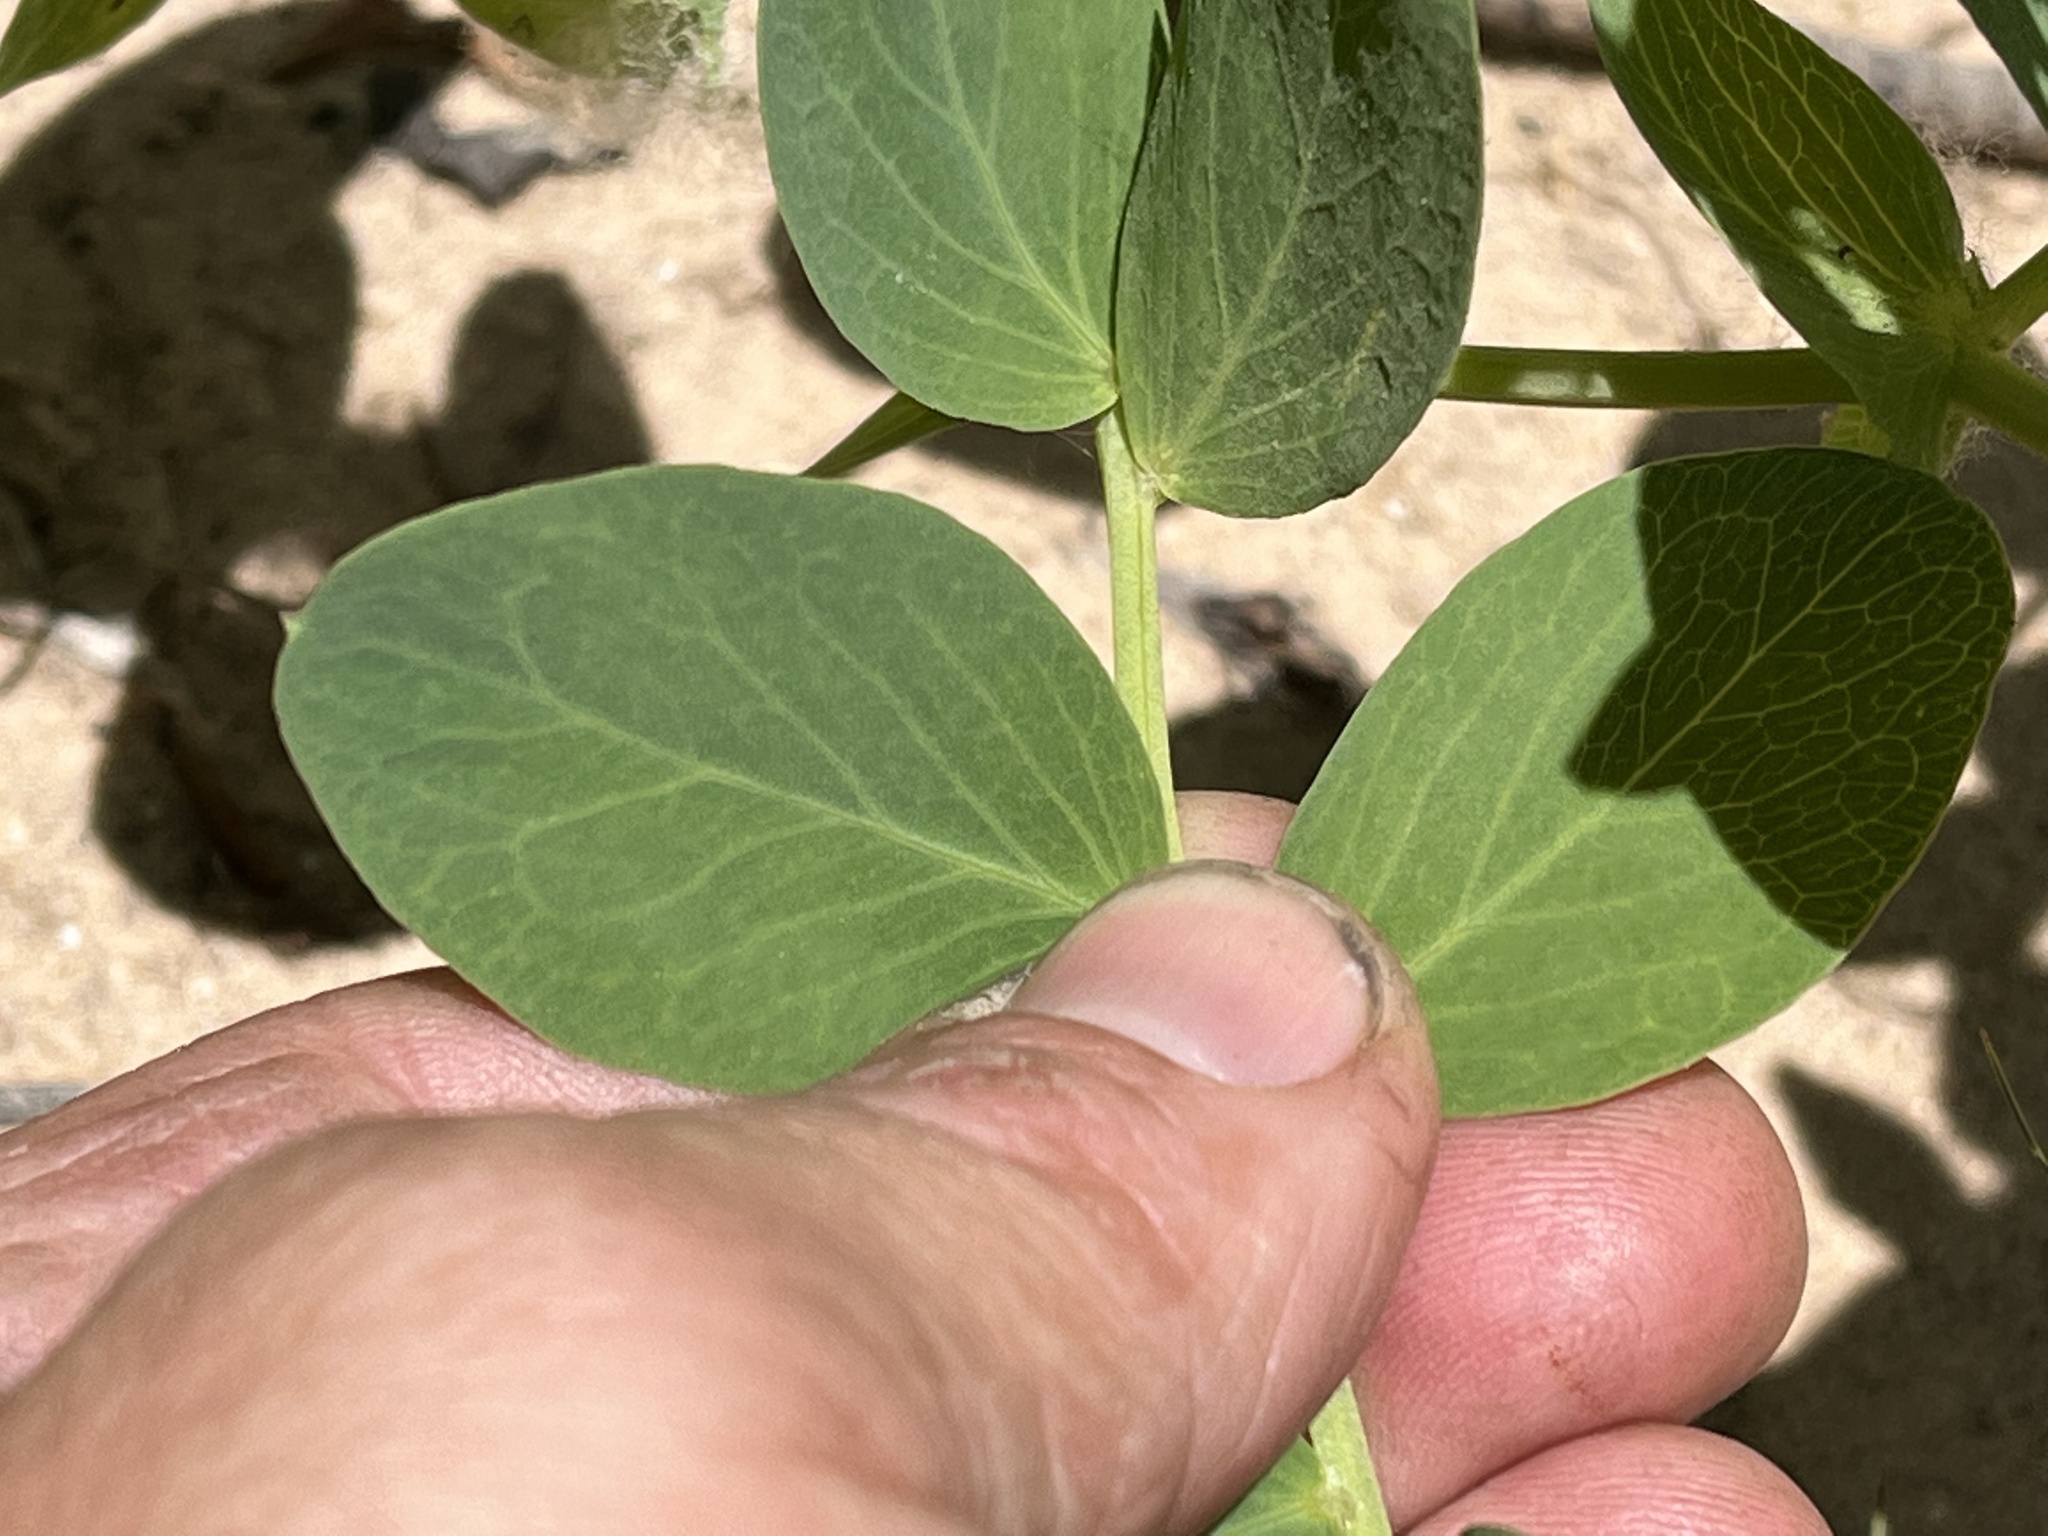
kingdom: Plantae
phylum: Tracheophyta
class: Magnoliopsida
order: Fabales
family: Fabaceae
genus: Lathyrus
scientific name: Lathyrus japonicus
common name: Sea pea
